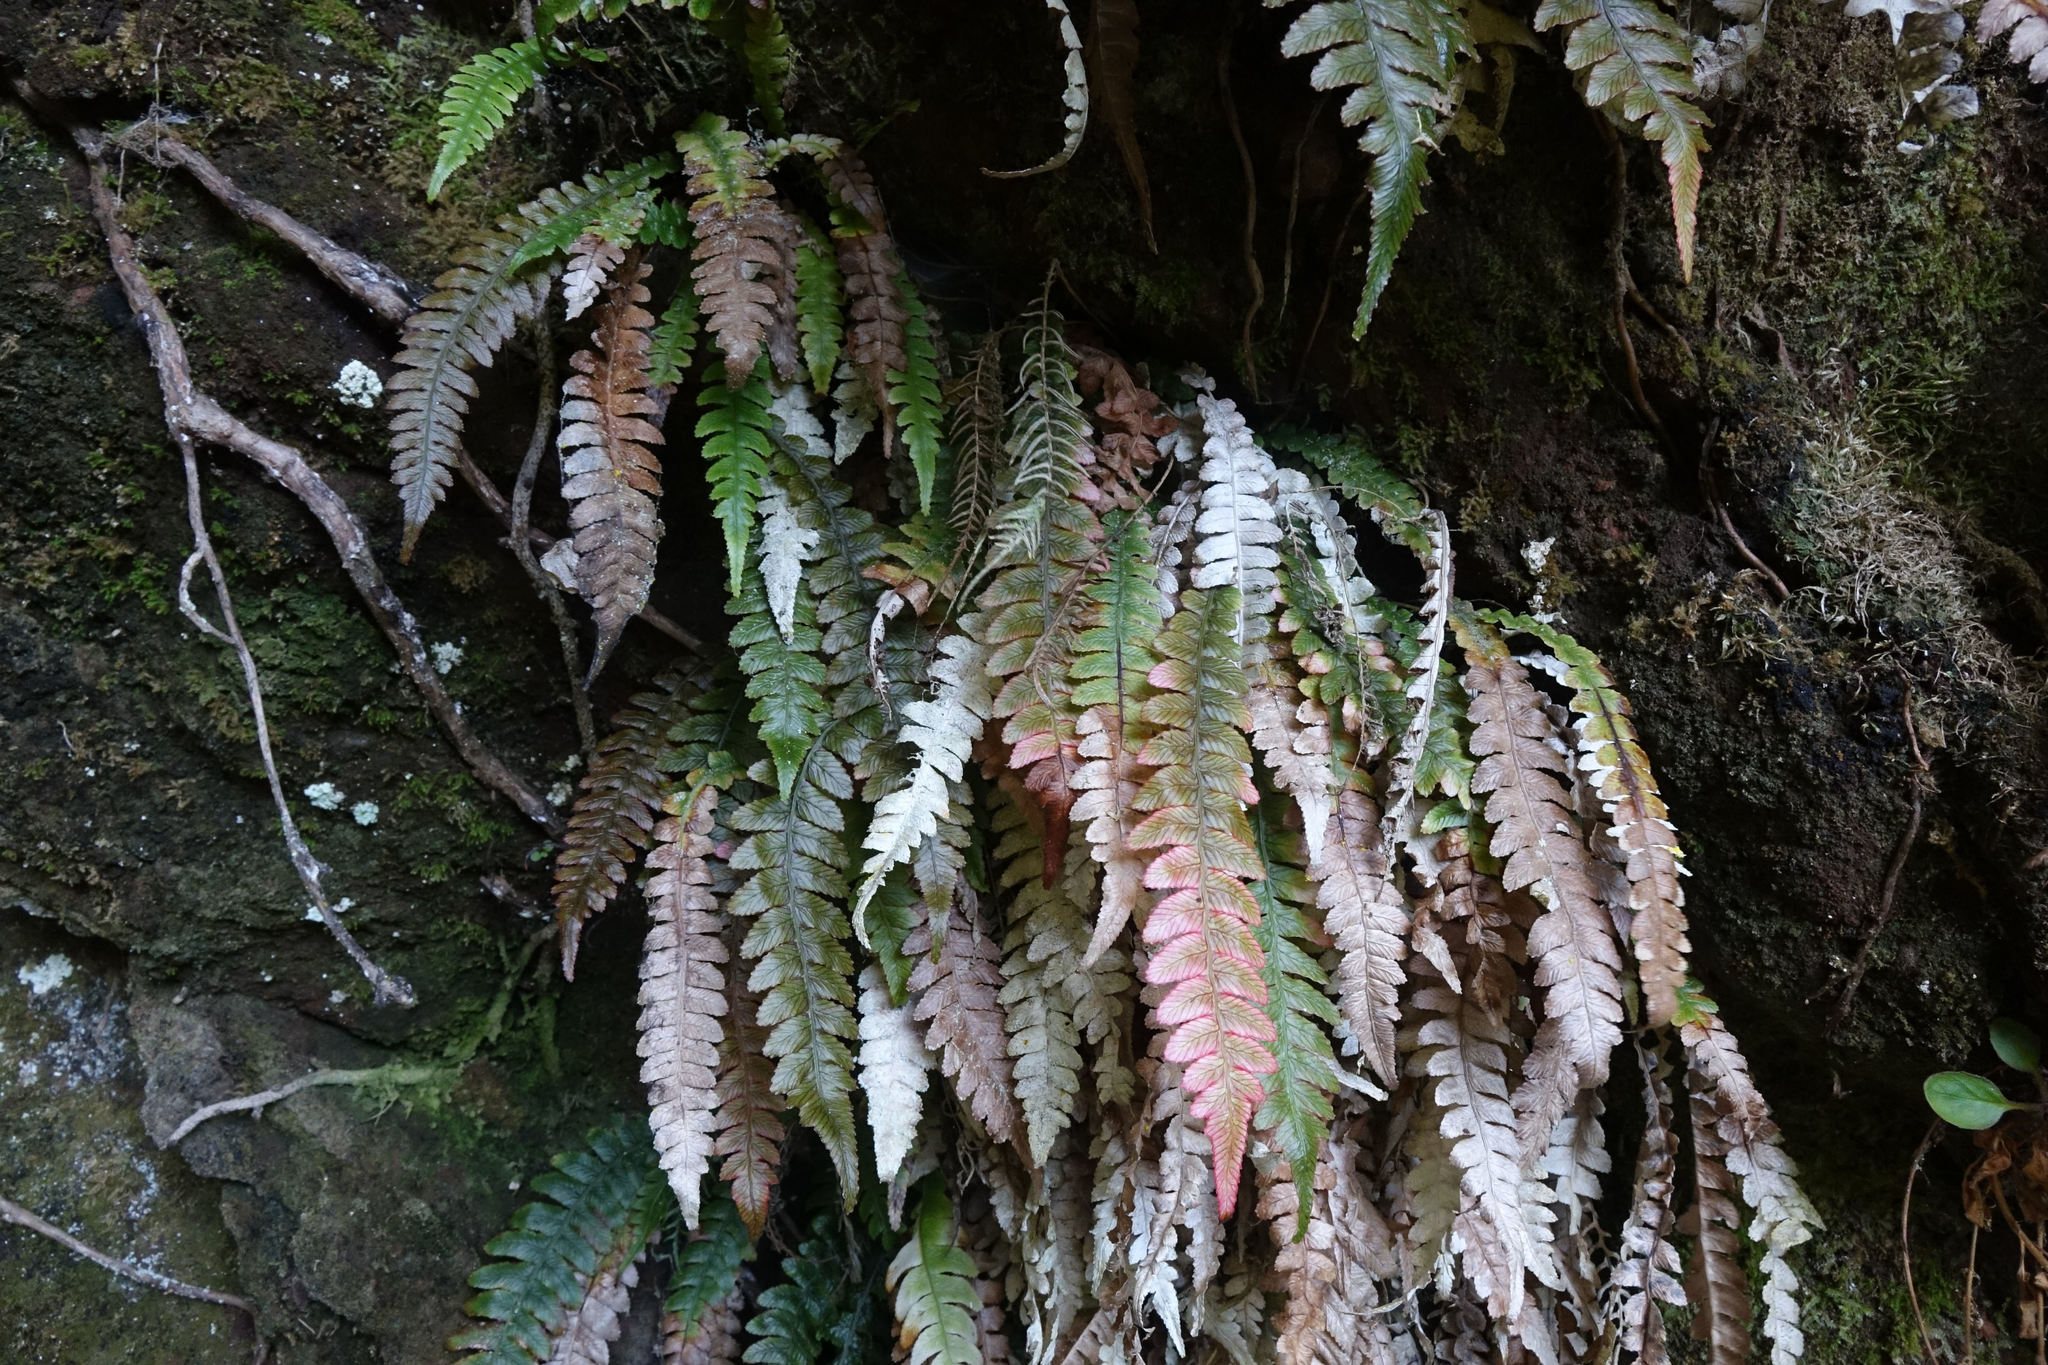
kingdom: Plantae
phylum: Tracheophyta
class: Polypodiopsida
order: Polypodiales
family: Blechnaceae
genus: Austroblechnum
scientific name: Austroblechnum lanceolatum
